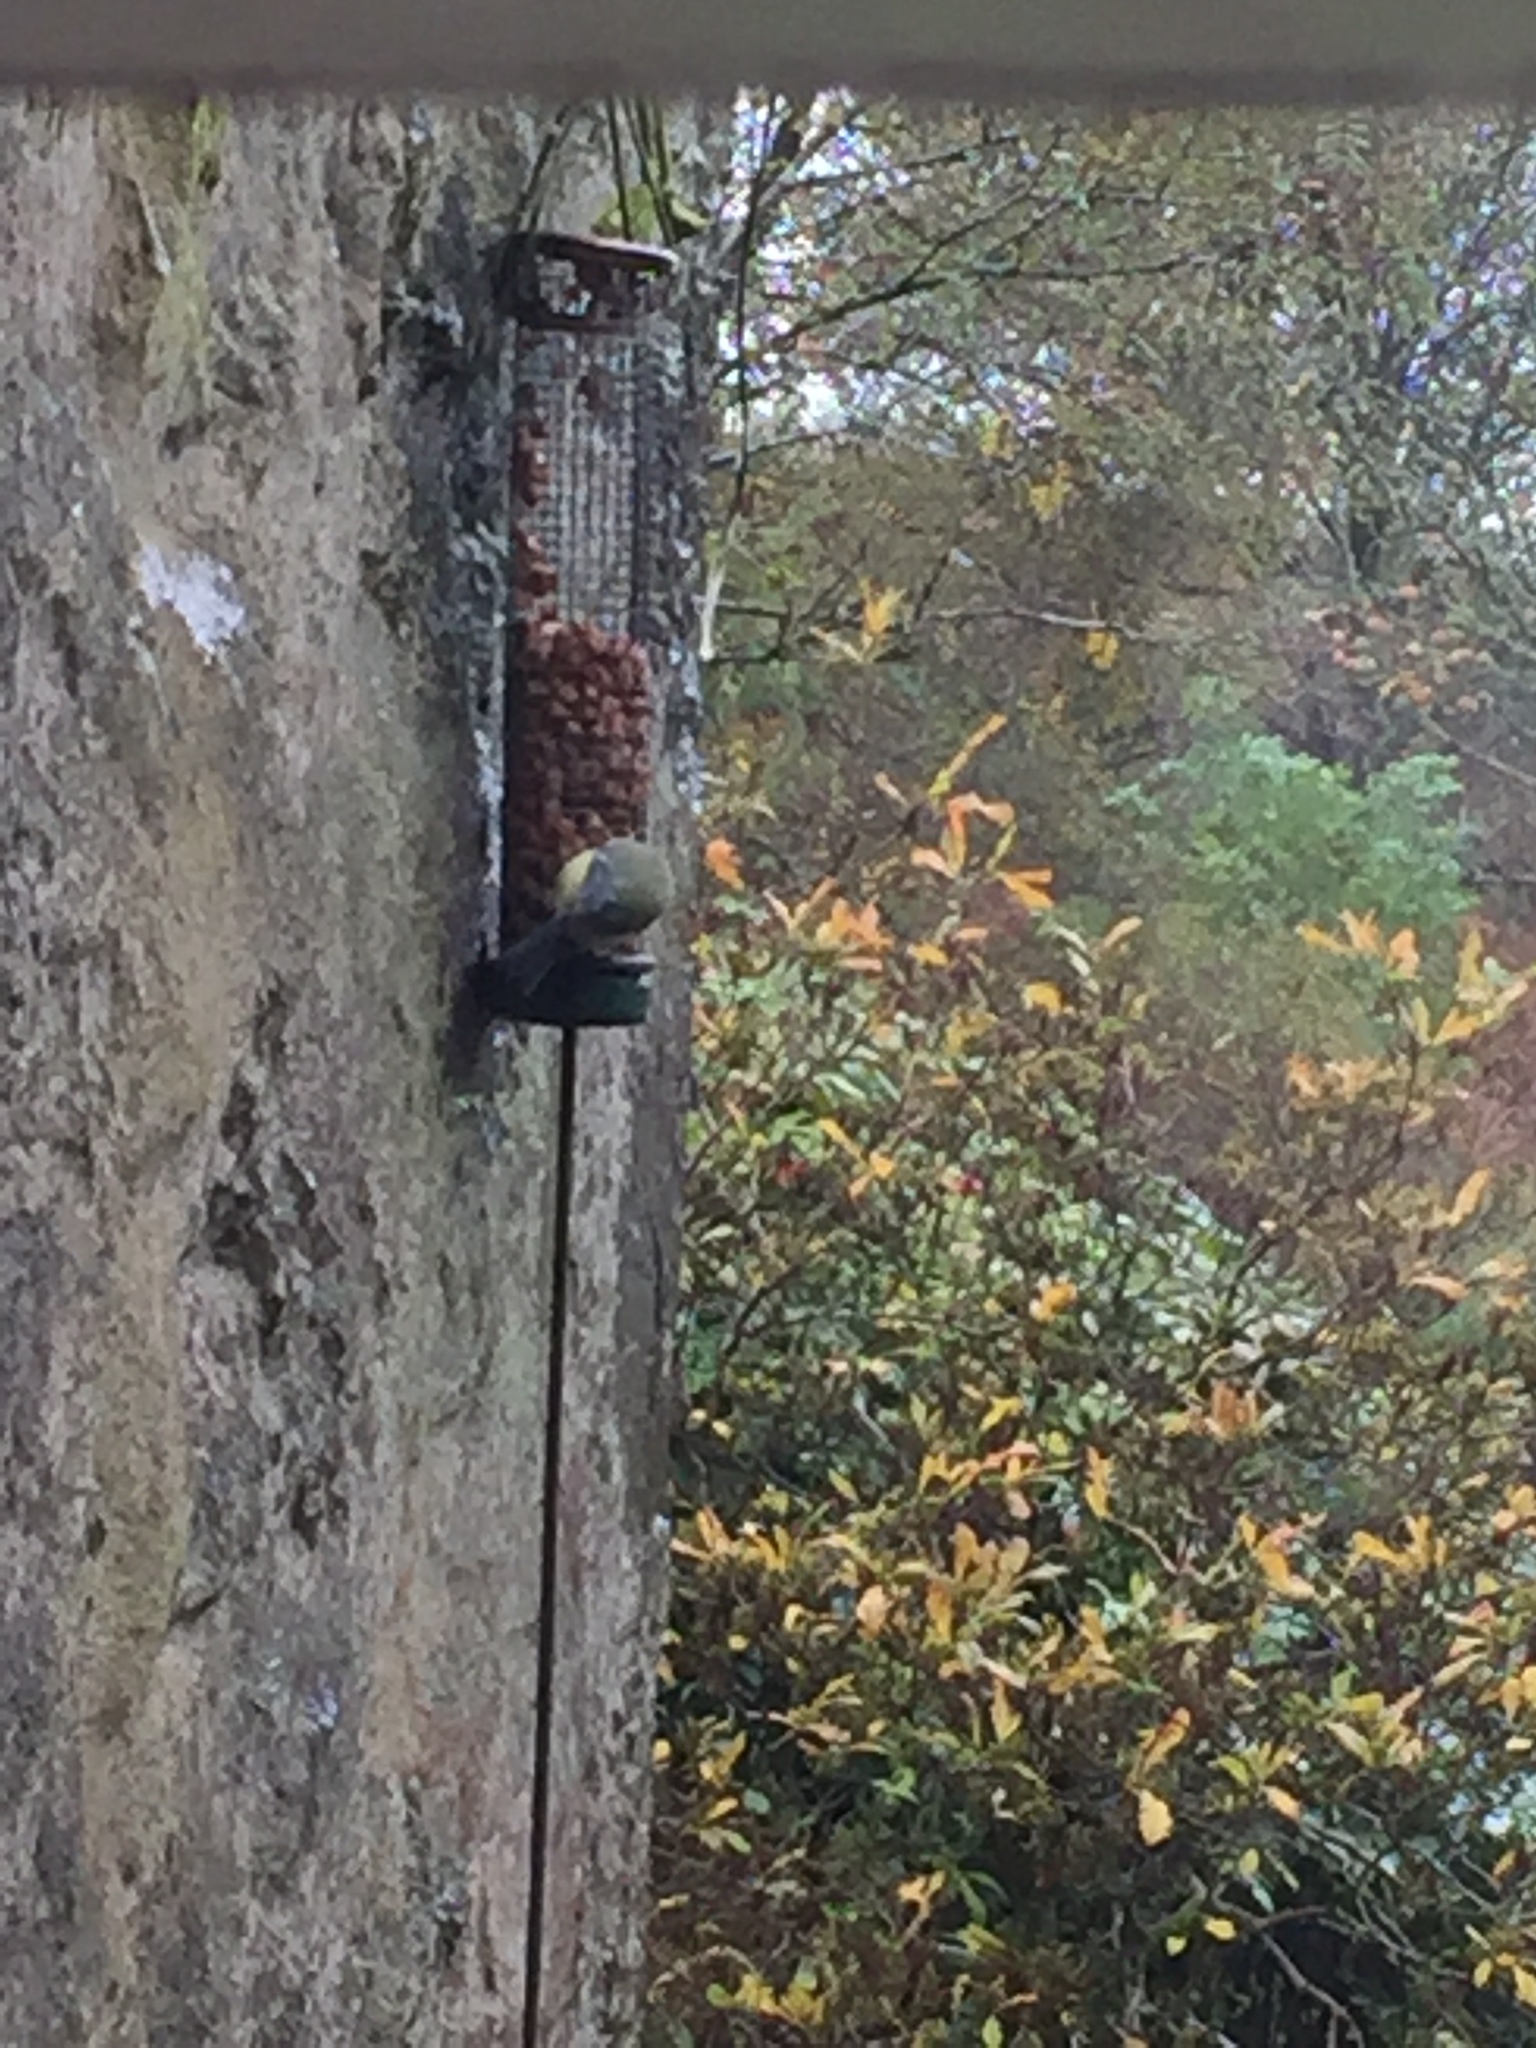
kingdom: Animalia
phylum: Chordata
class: Aves
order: Passeriformes
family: Paridae
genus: Cyanistes
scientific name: Cyanistes caeruleus
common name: Eurasian blue tit
